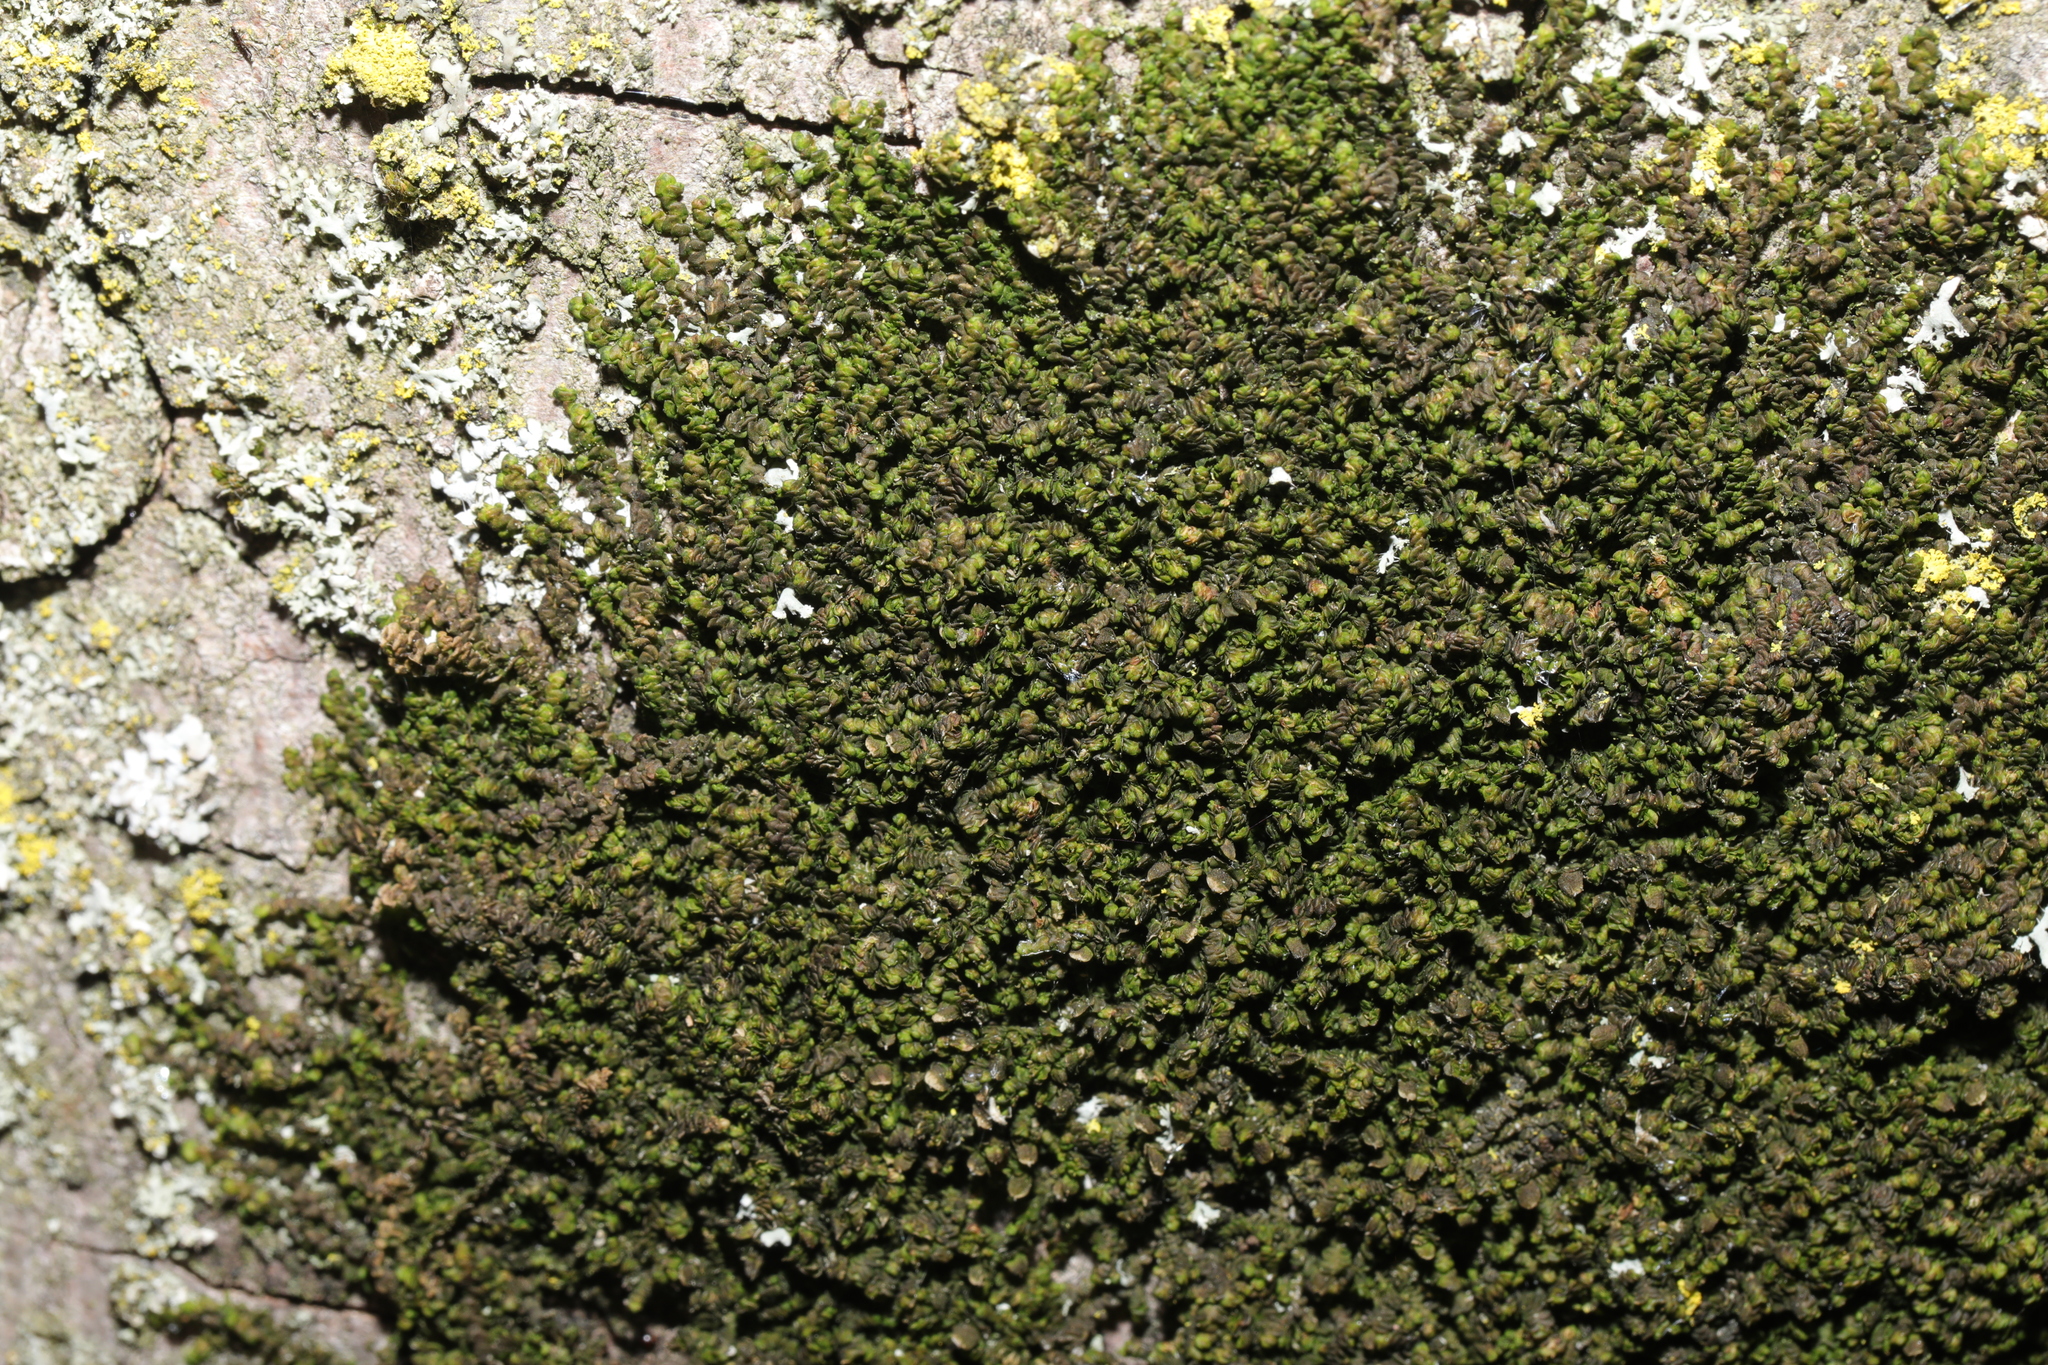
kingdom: Plantae
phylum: Marchantiophyta
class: Jungermanniopsida
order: Porellales
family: Frullaniaceae
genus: Frullania
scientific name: Frullania dilatata
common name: Dilated scalewort
